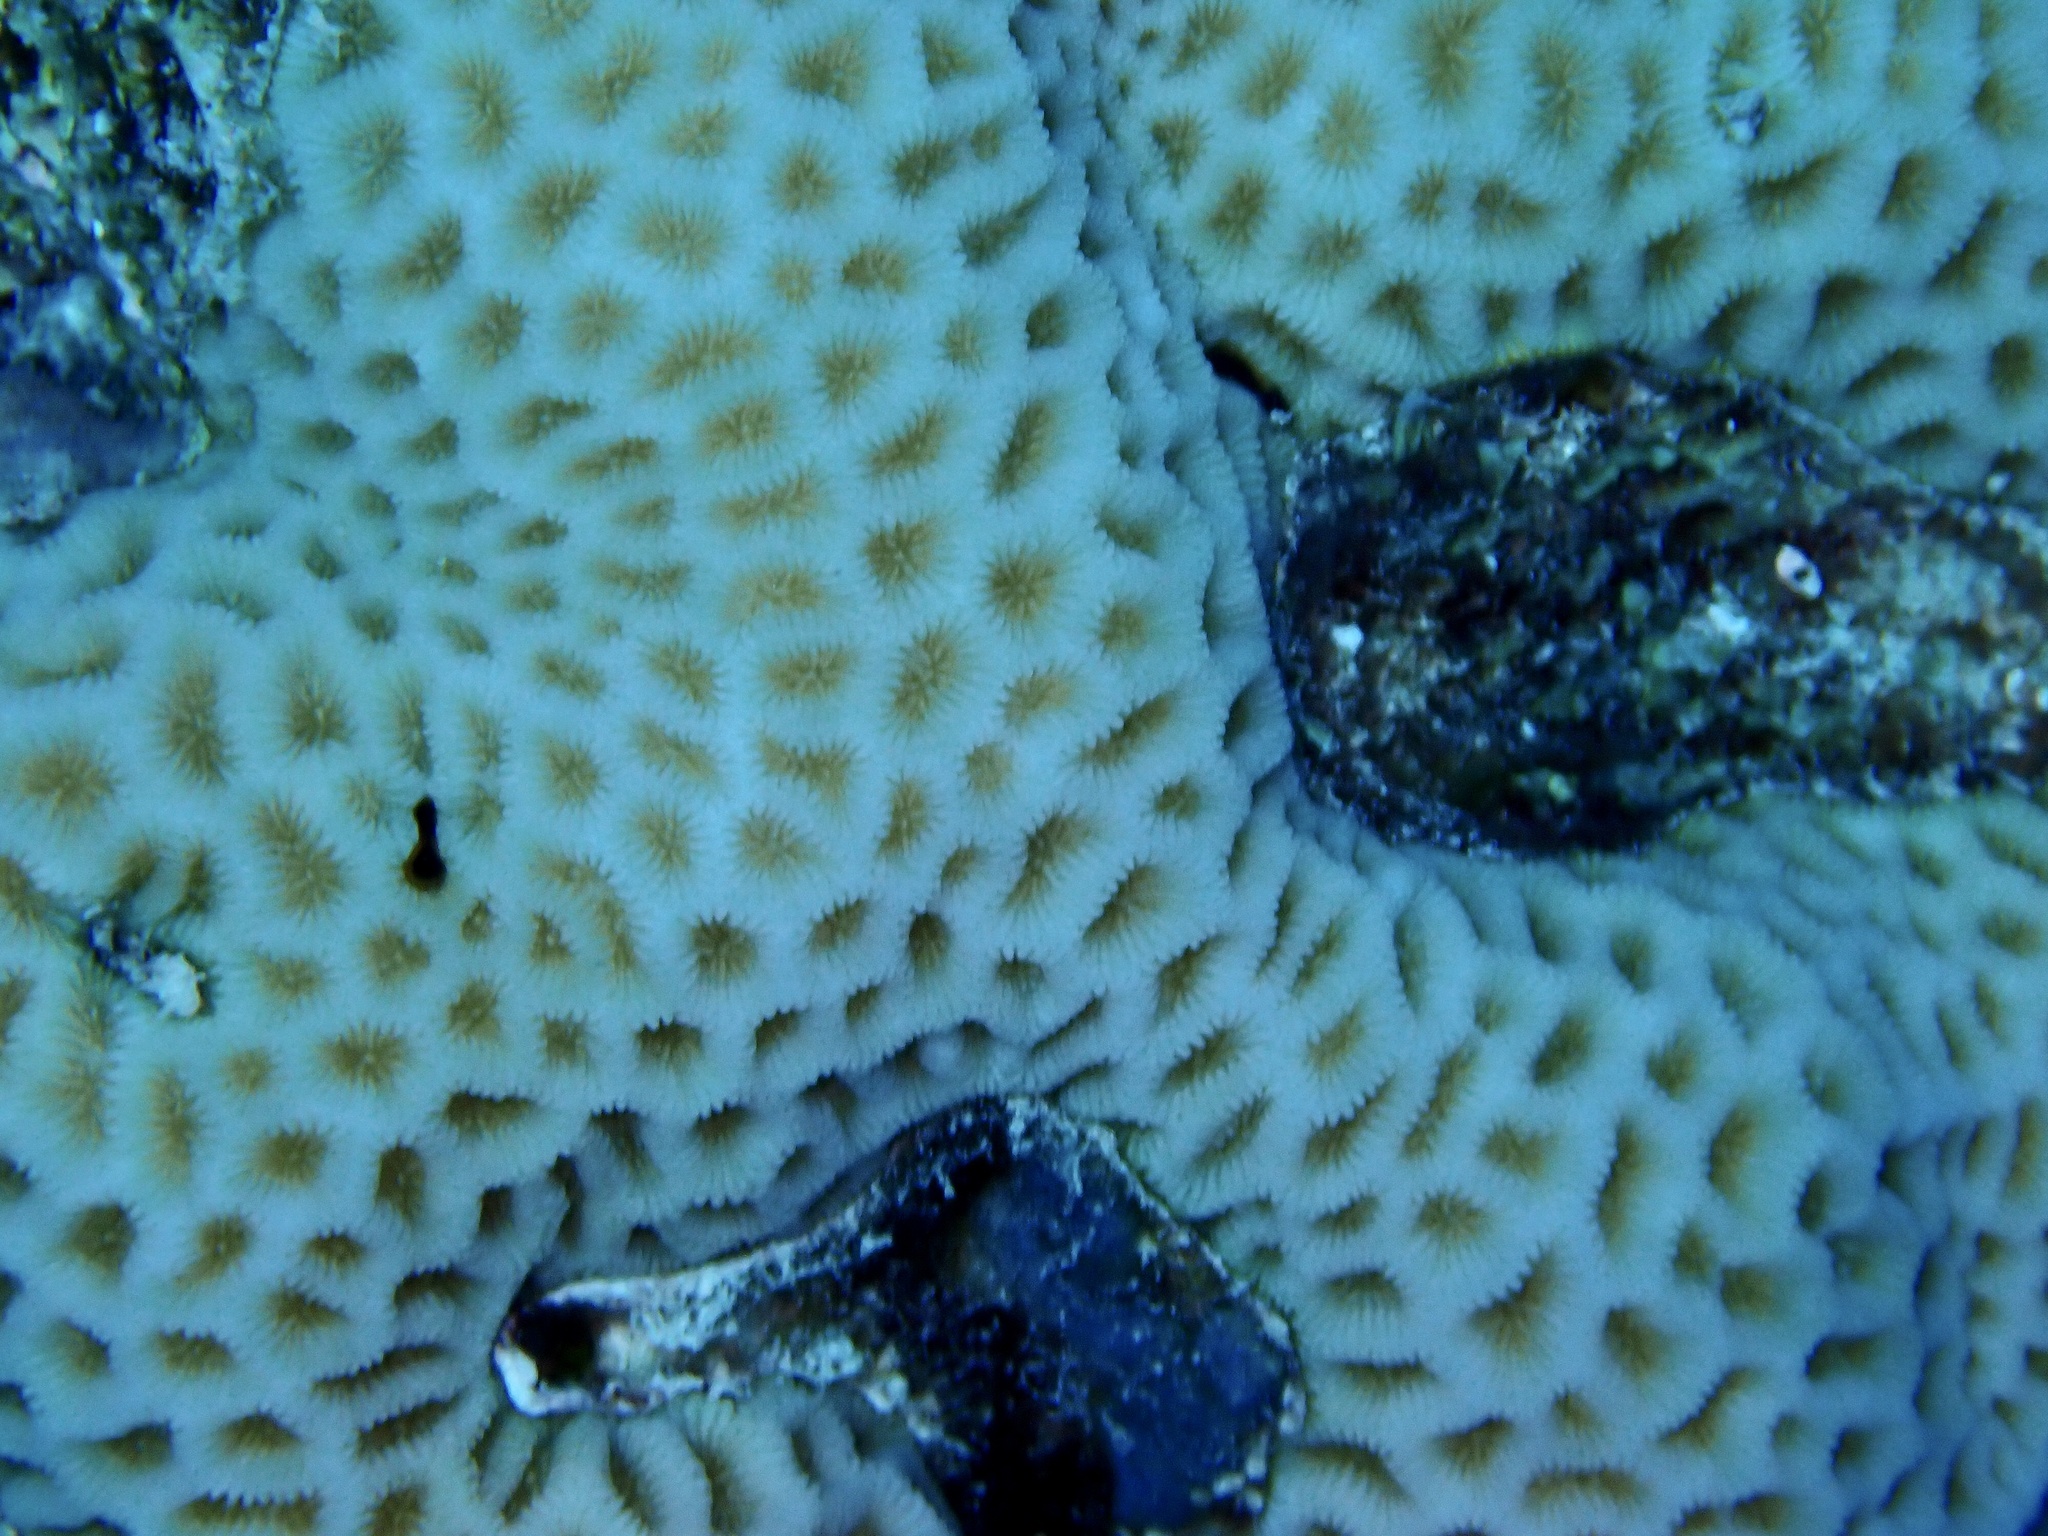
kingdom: Animalia
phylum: Cnidaria
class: Anthozoa
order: Scleractinia
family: Merulinidae
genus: Goniastrea
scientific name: Goniastrea pectinata
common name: Lesser star coral
